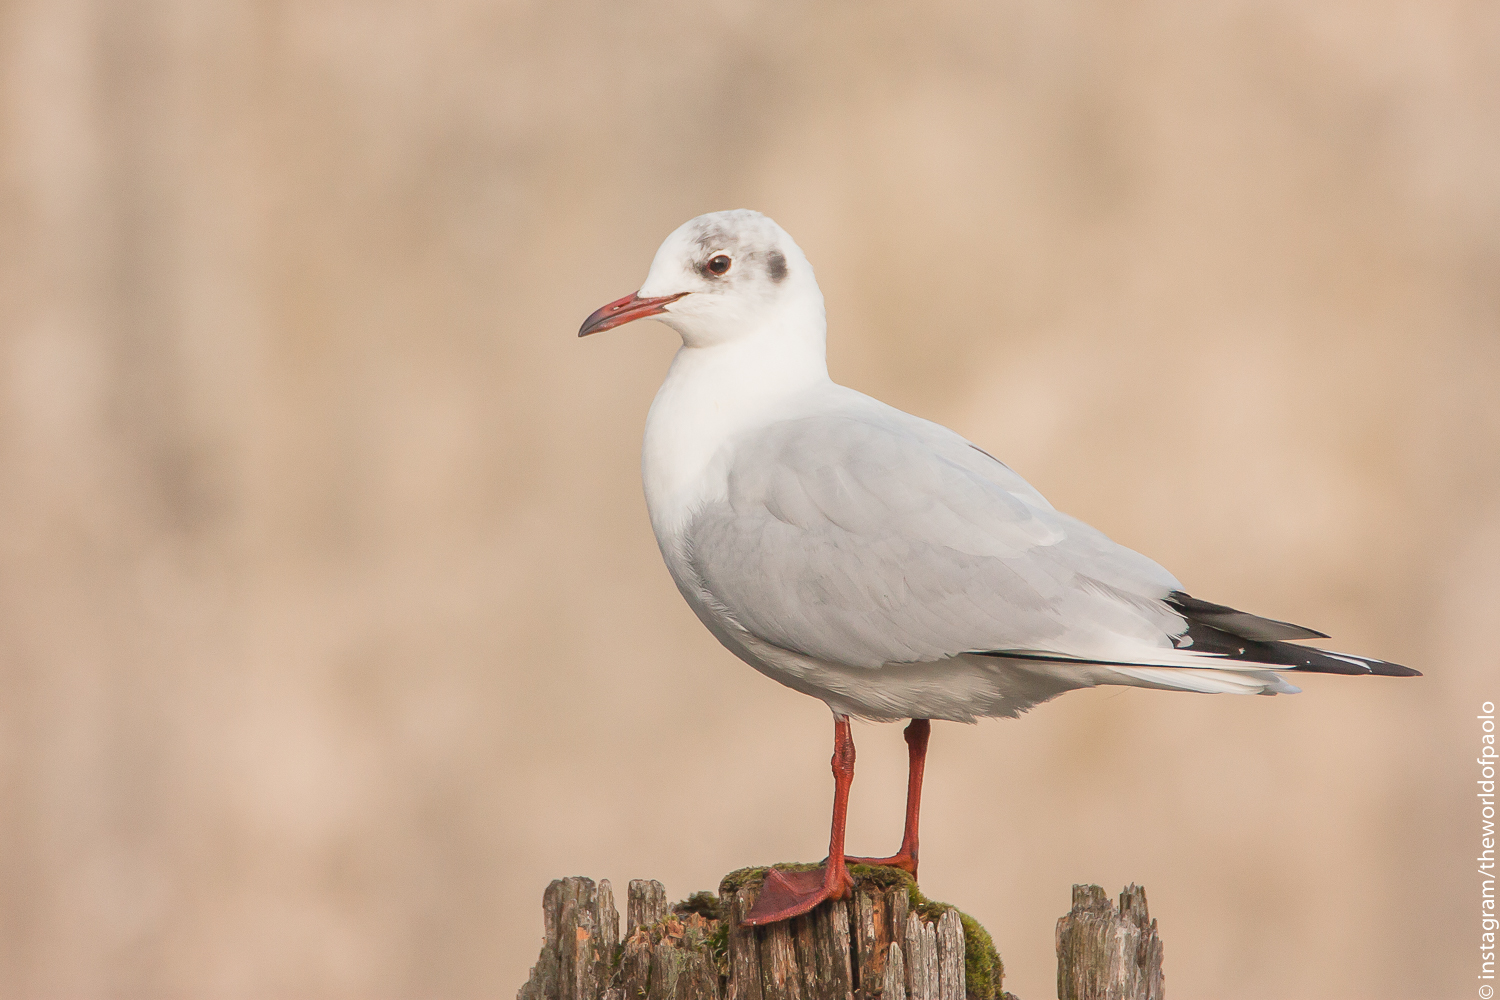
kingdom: Animalia
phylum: Chordata
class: Aves
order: Charadriiformes
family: Laridae
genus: Chroicocephalus
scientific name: Chroicocephalus ridibundus
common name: Black-headed gull
